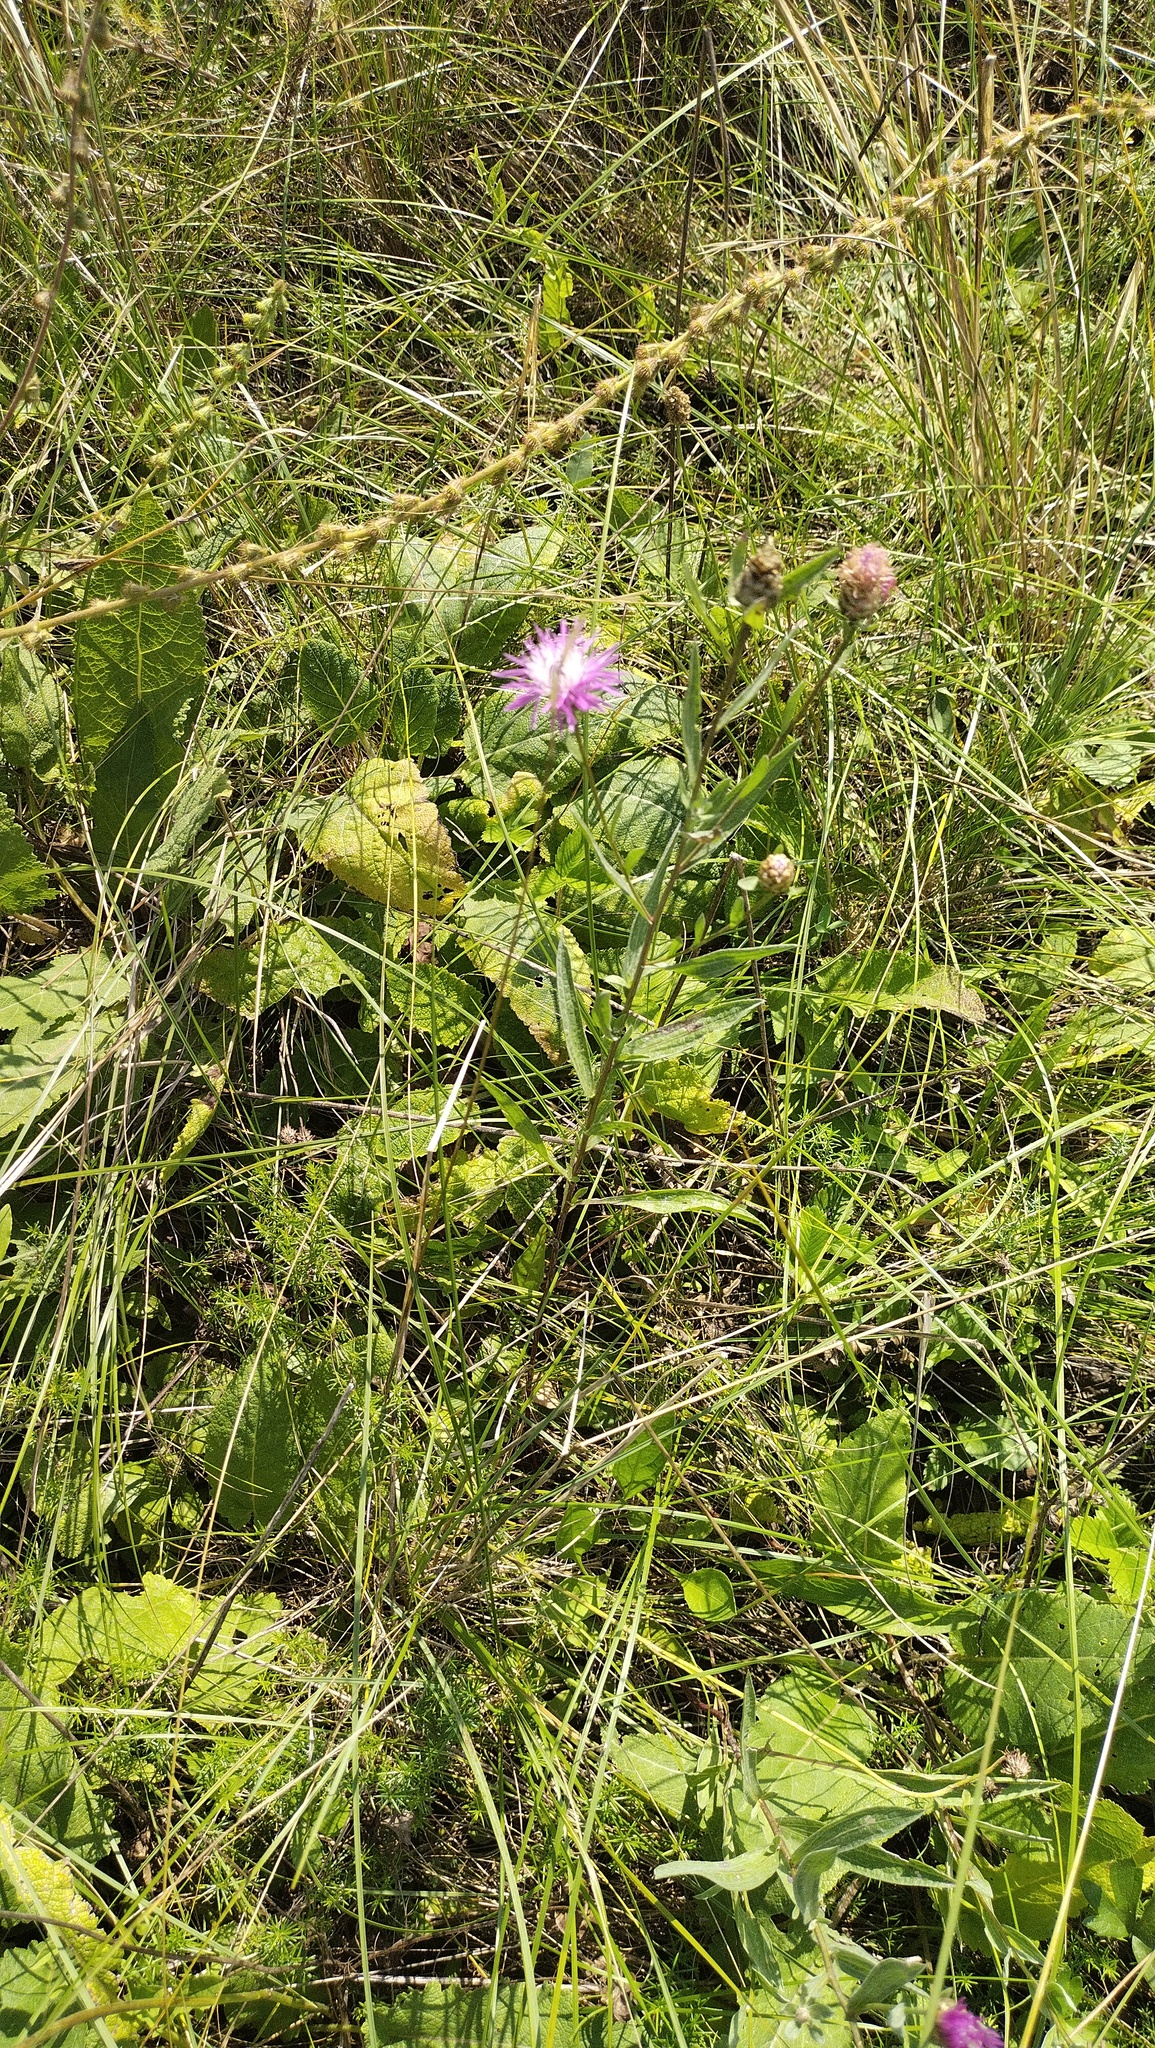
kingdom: Plantae
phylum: Tracheophyta
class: Magnoliopsida
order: Asterales
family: Asteraceae
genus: Centaurea
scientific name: Centaurea jacea
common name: Brown knapweed
